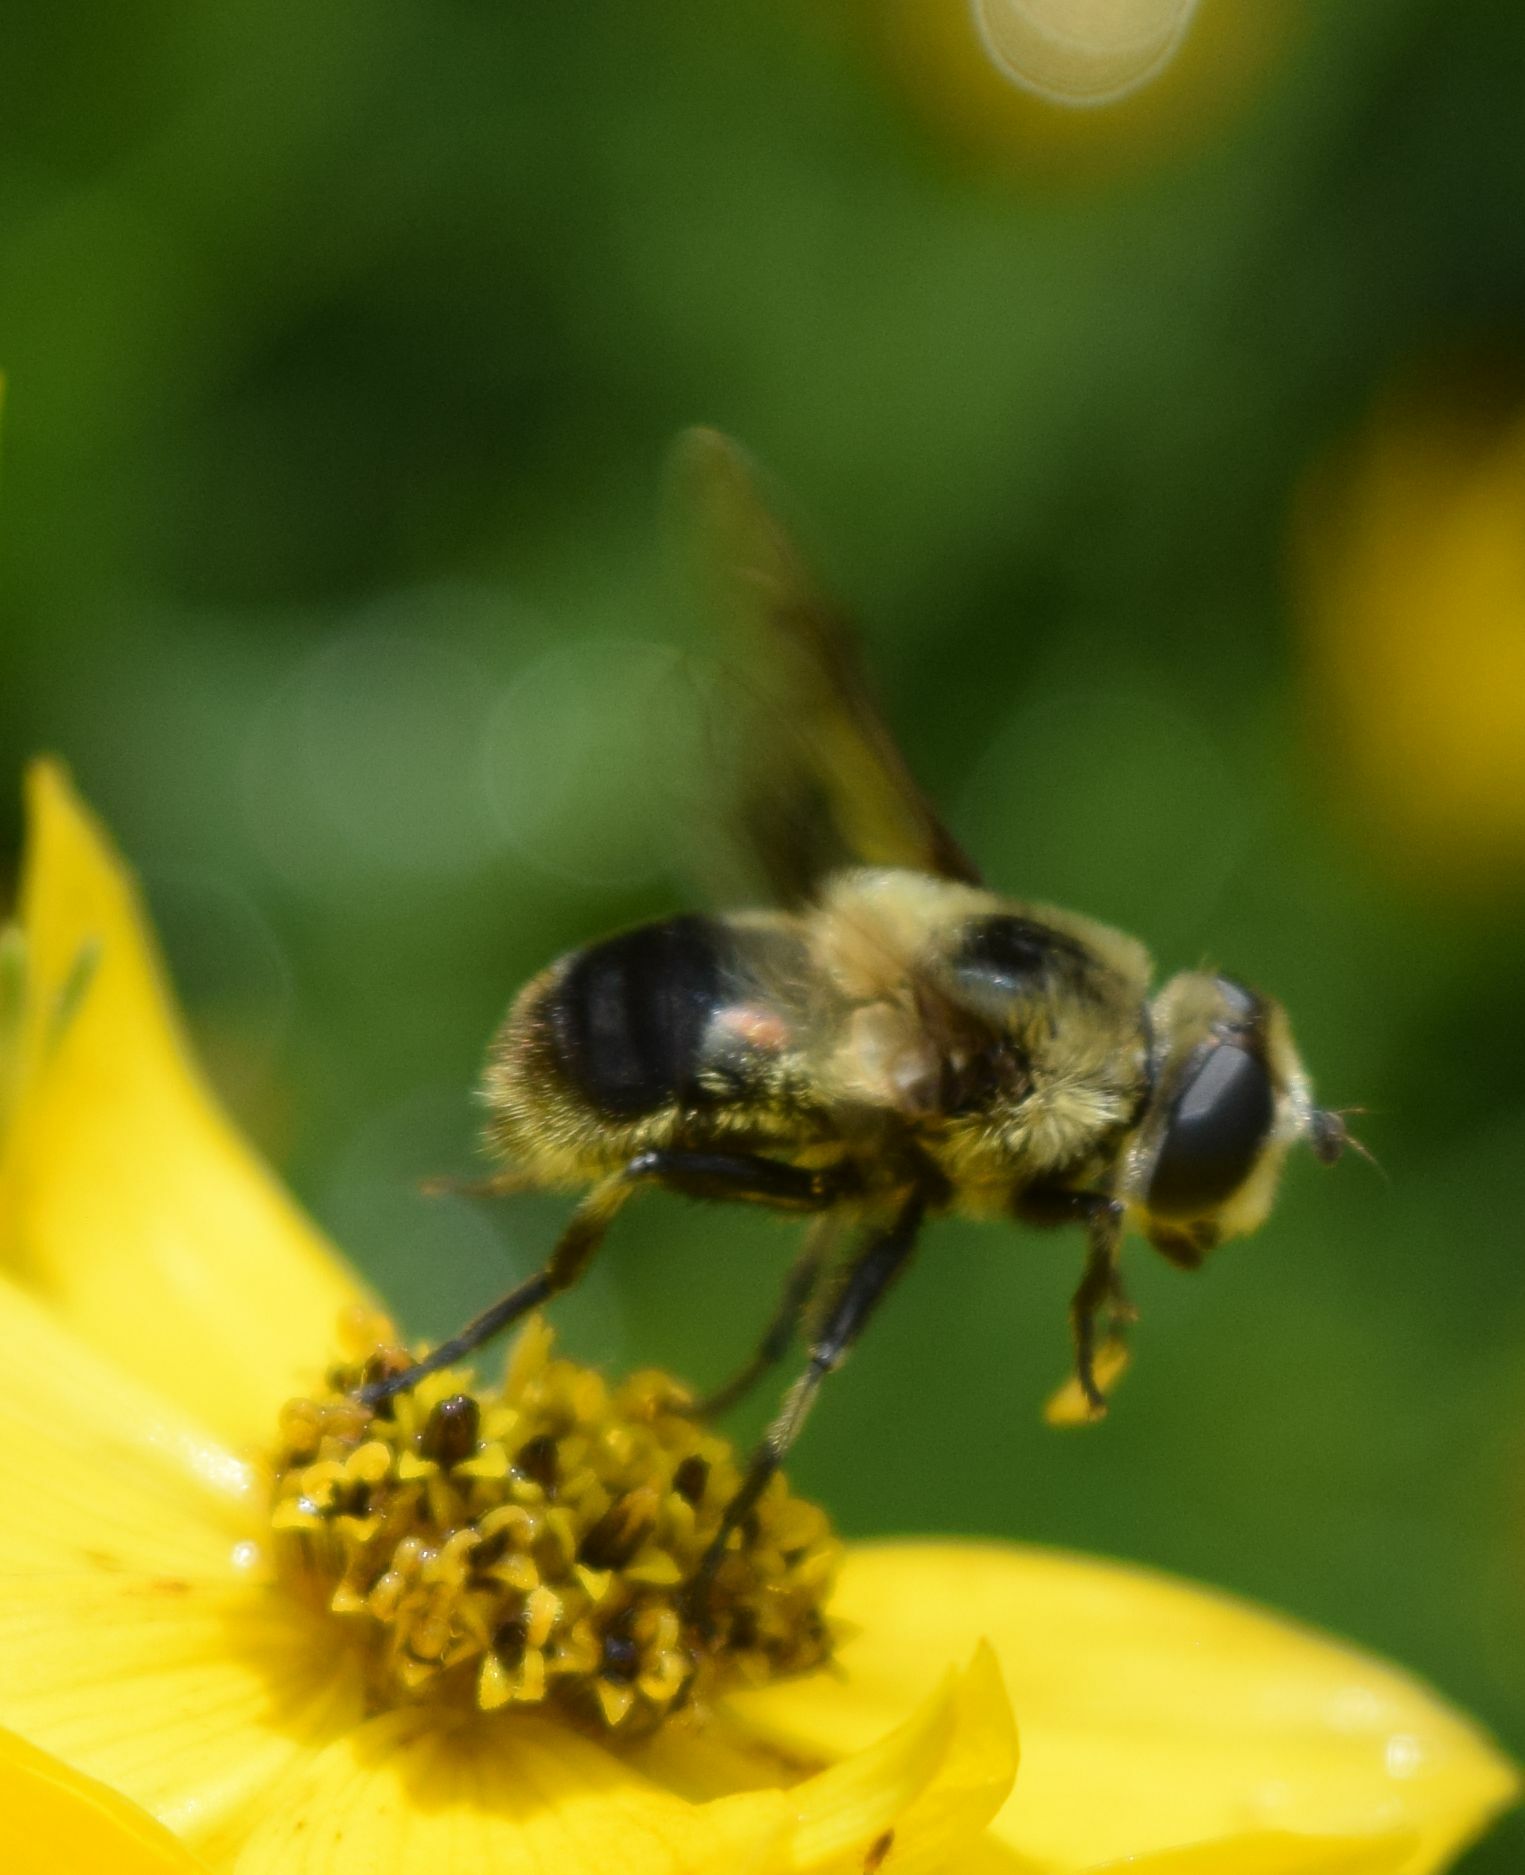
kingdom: Animalia
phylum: Arthropoda
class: Insecta
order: Diptera
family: Syrphidae
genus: Eristalis
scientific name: Eristalis anthophorina
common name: Orange-spotted drone fly
